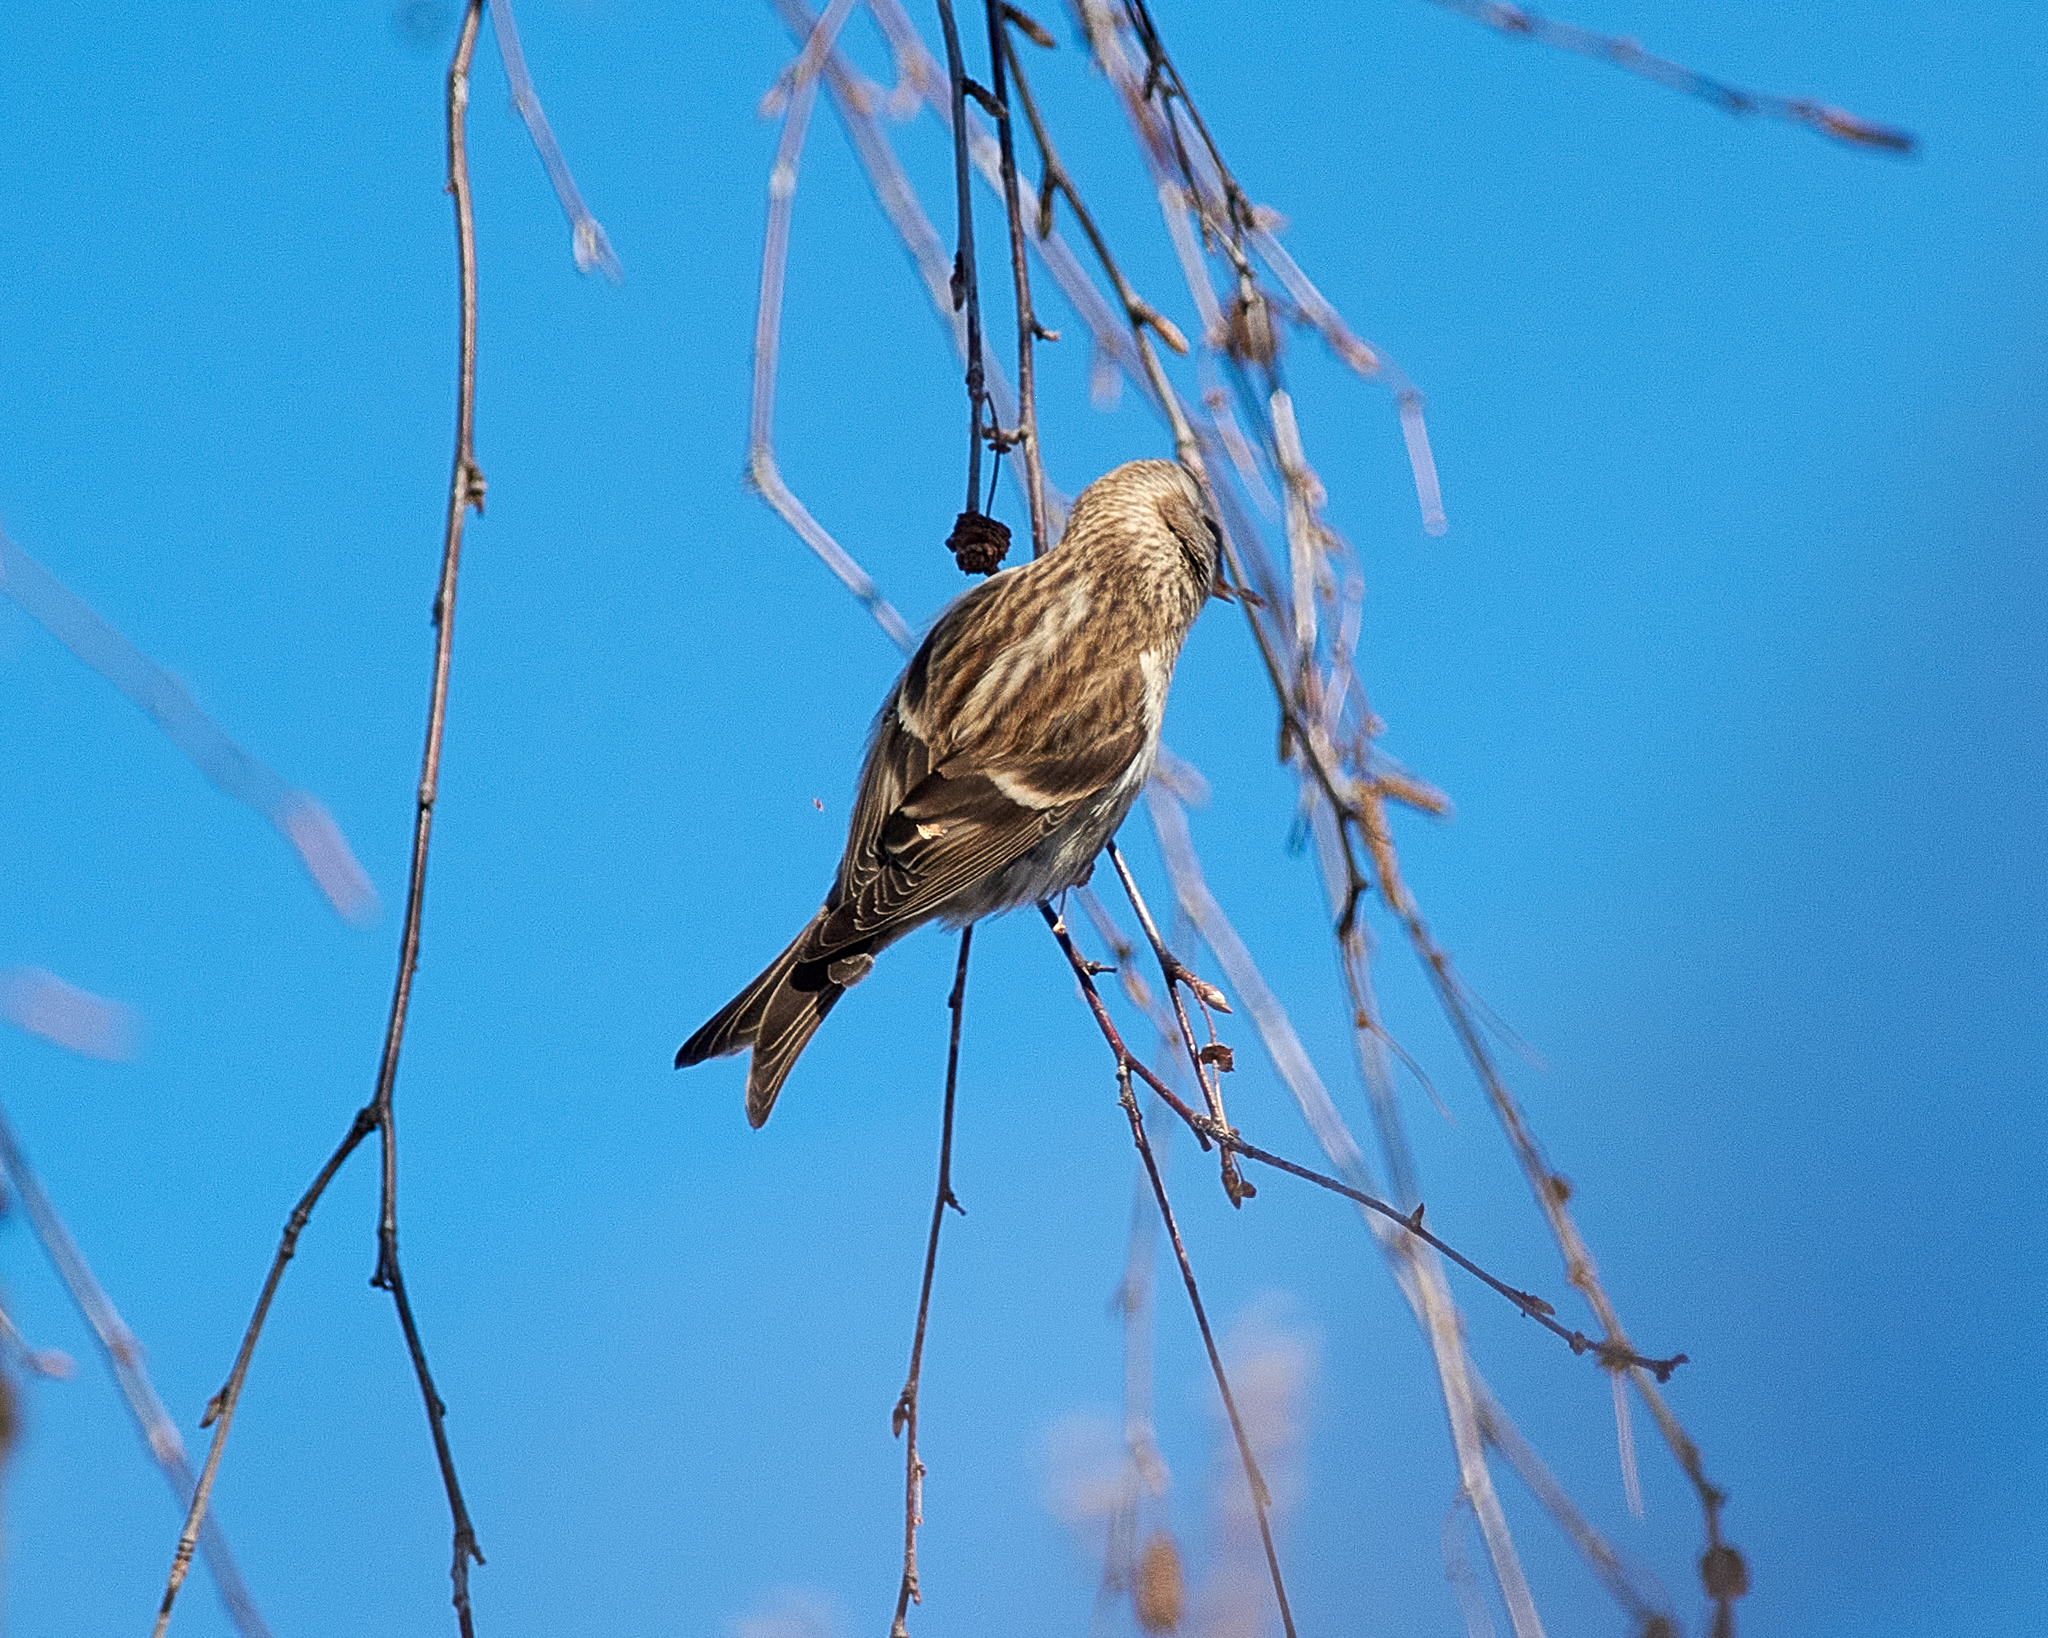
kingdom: Animalia
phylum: Chordata
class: Aves
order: Passeriformes
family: Fringillidae
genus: Acanthis
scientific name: Acanthis flammea
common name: Common redpoll
